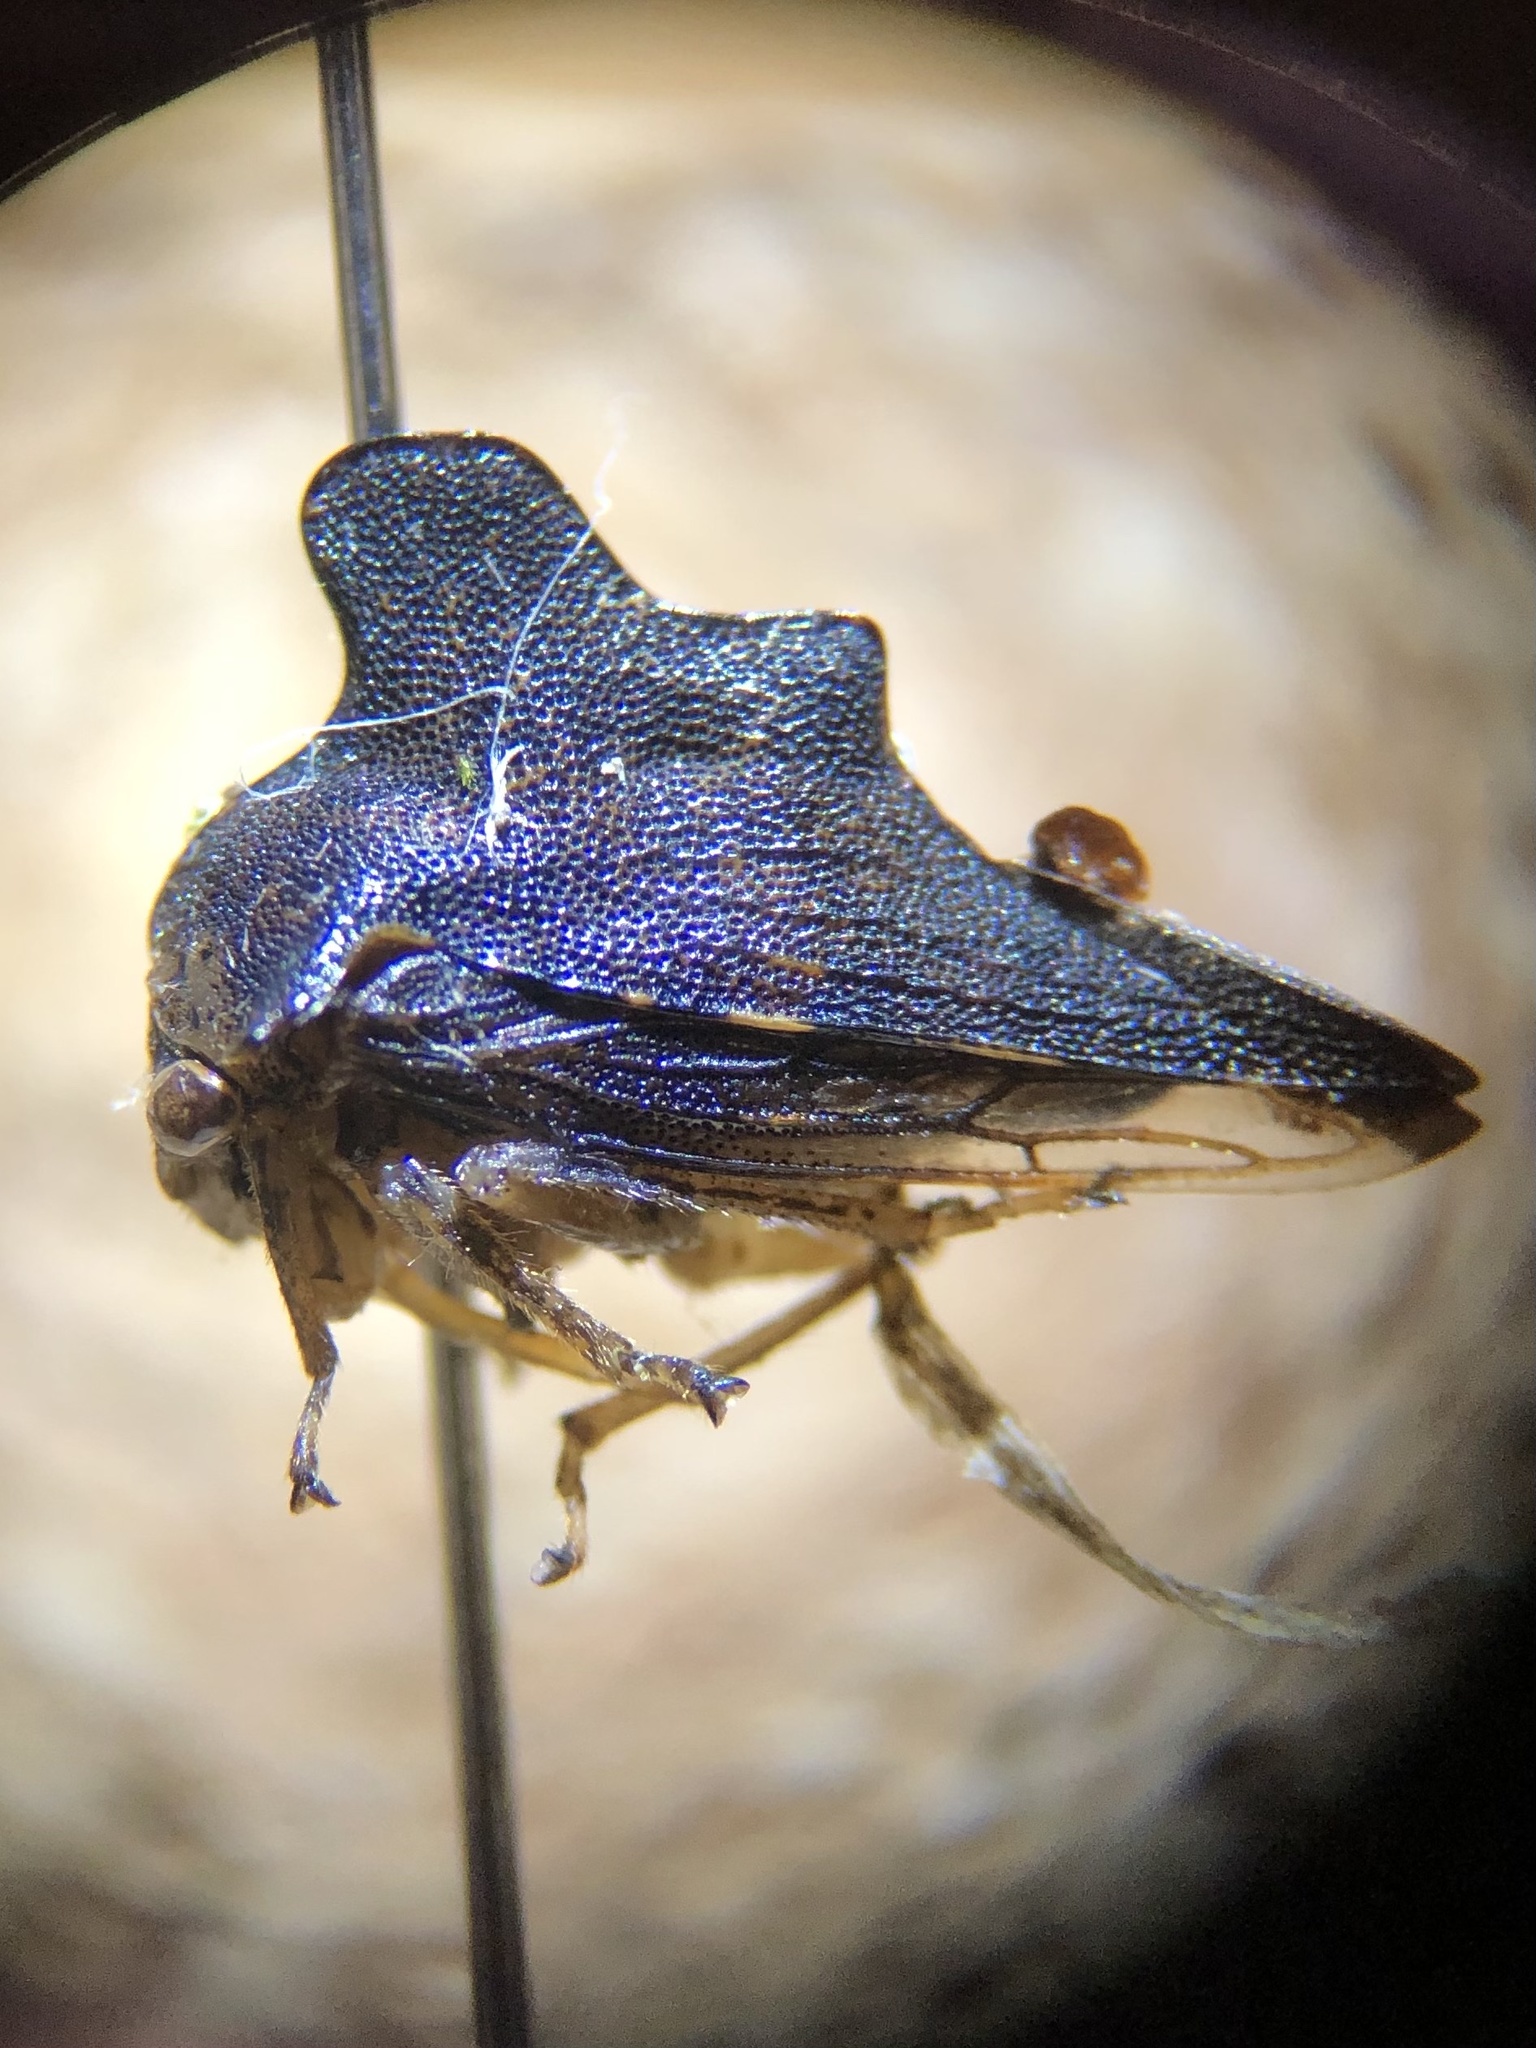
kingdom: Animalia
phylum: Arthropoda
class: Insecta
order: Hemiptera
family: Membracidae
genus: Heliria
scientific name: Heliria cristata
